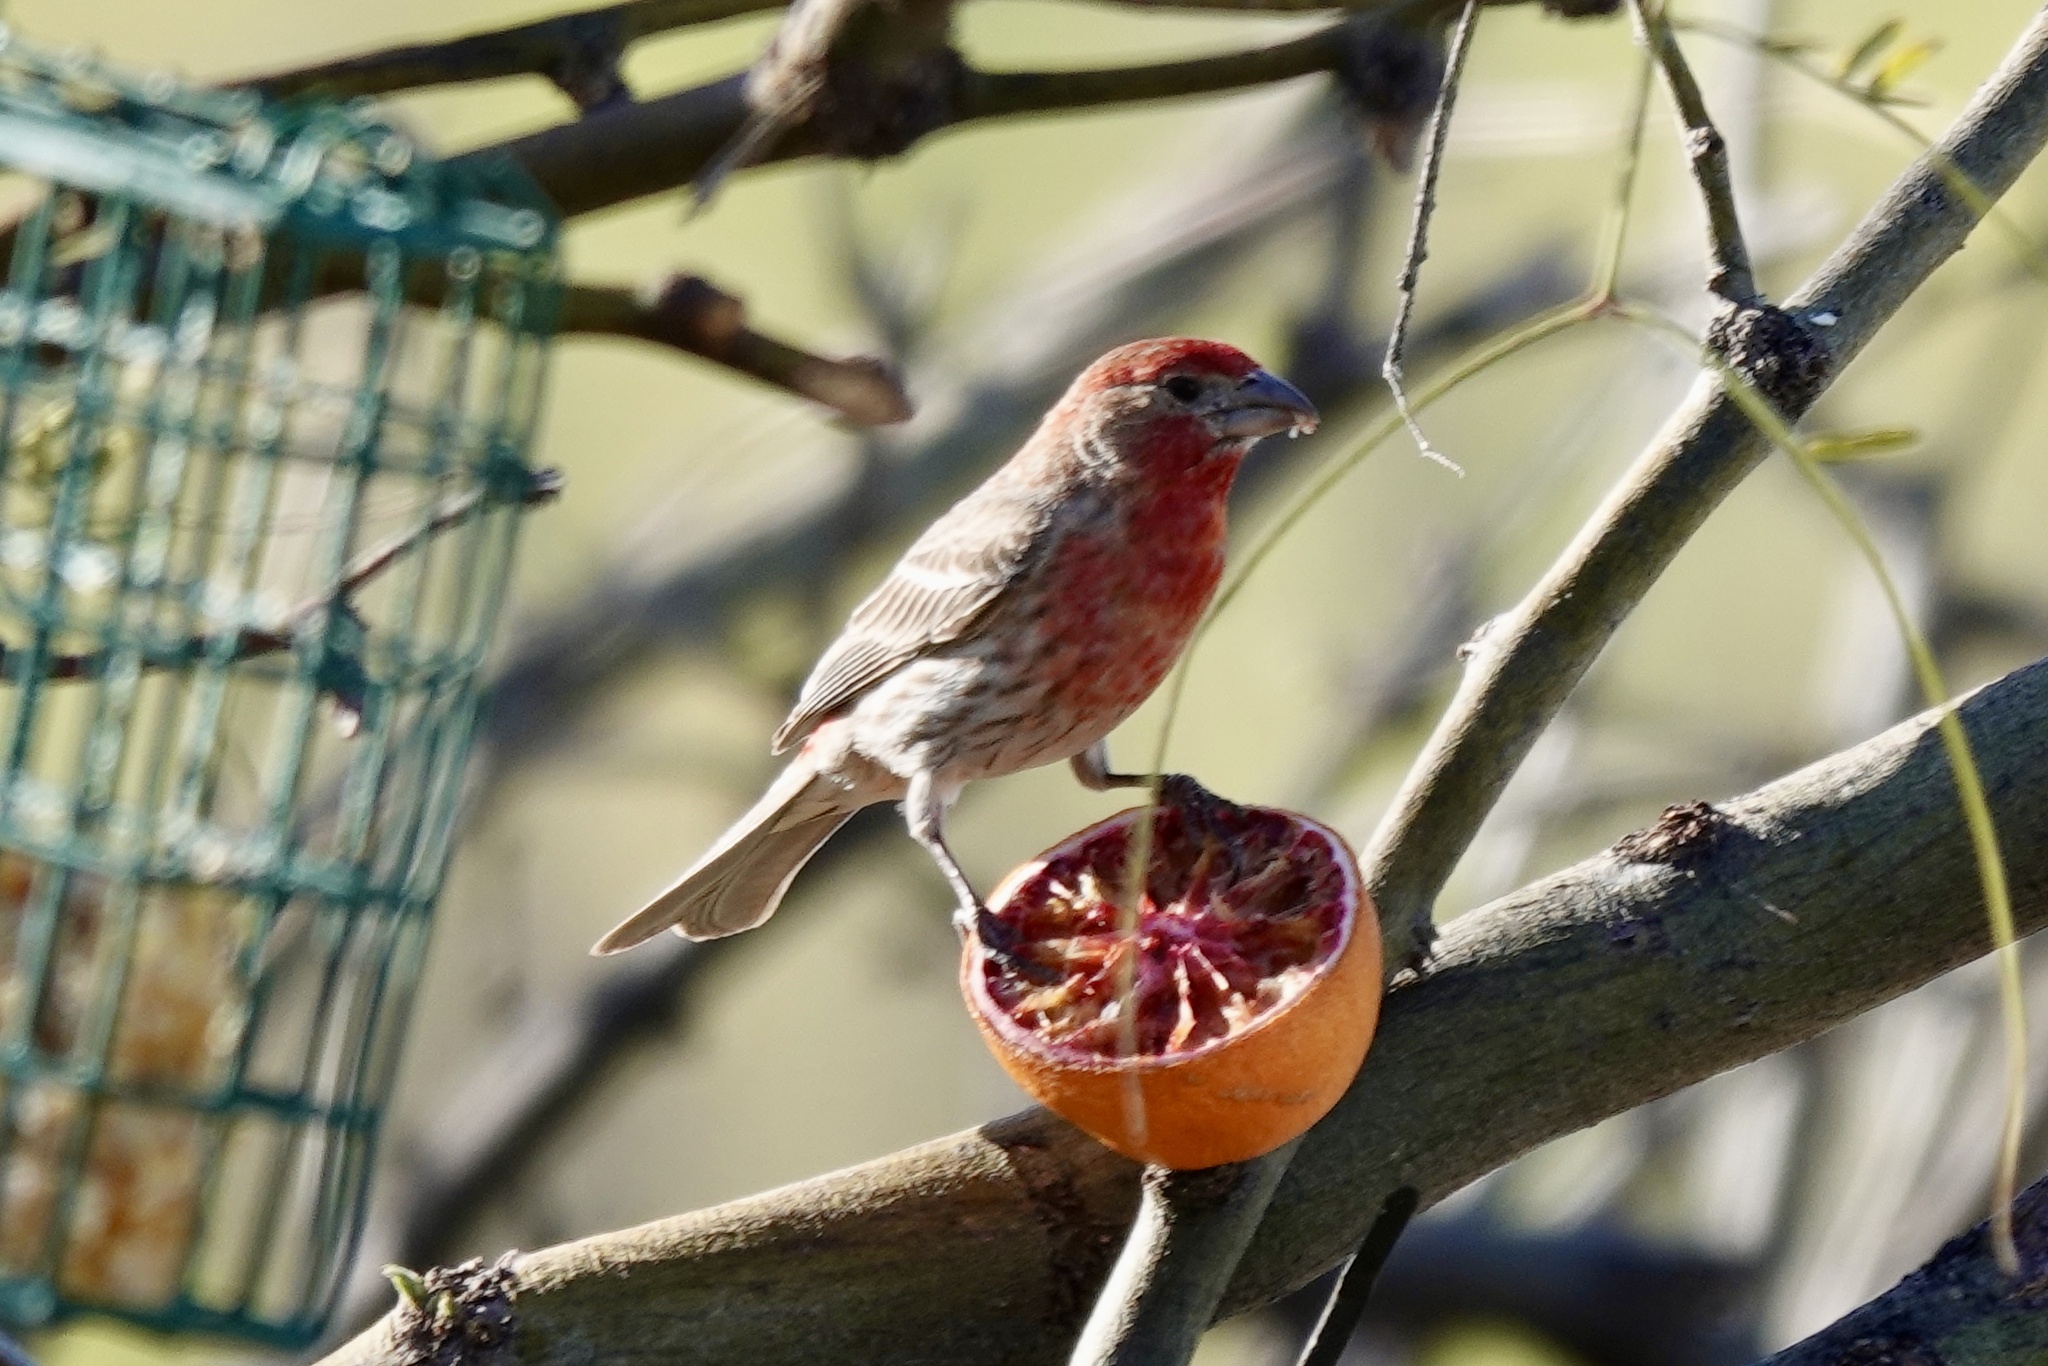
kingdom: Animalia
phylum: Chordata
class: Aves
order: Passeriformes
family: Fringillidae
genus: Haemorhous
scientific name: Haemorhous mexicanus
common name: House finch
